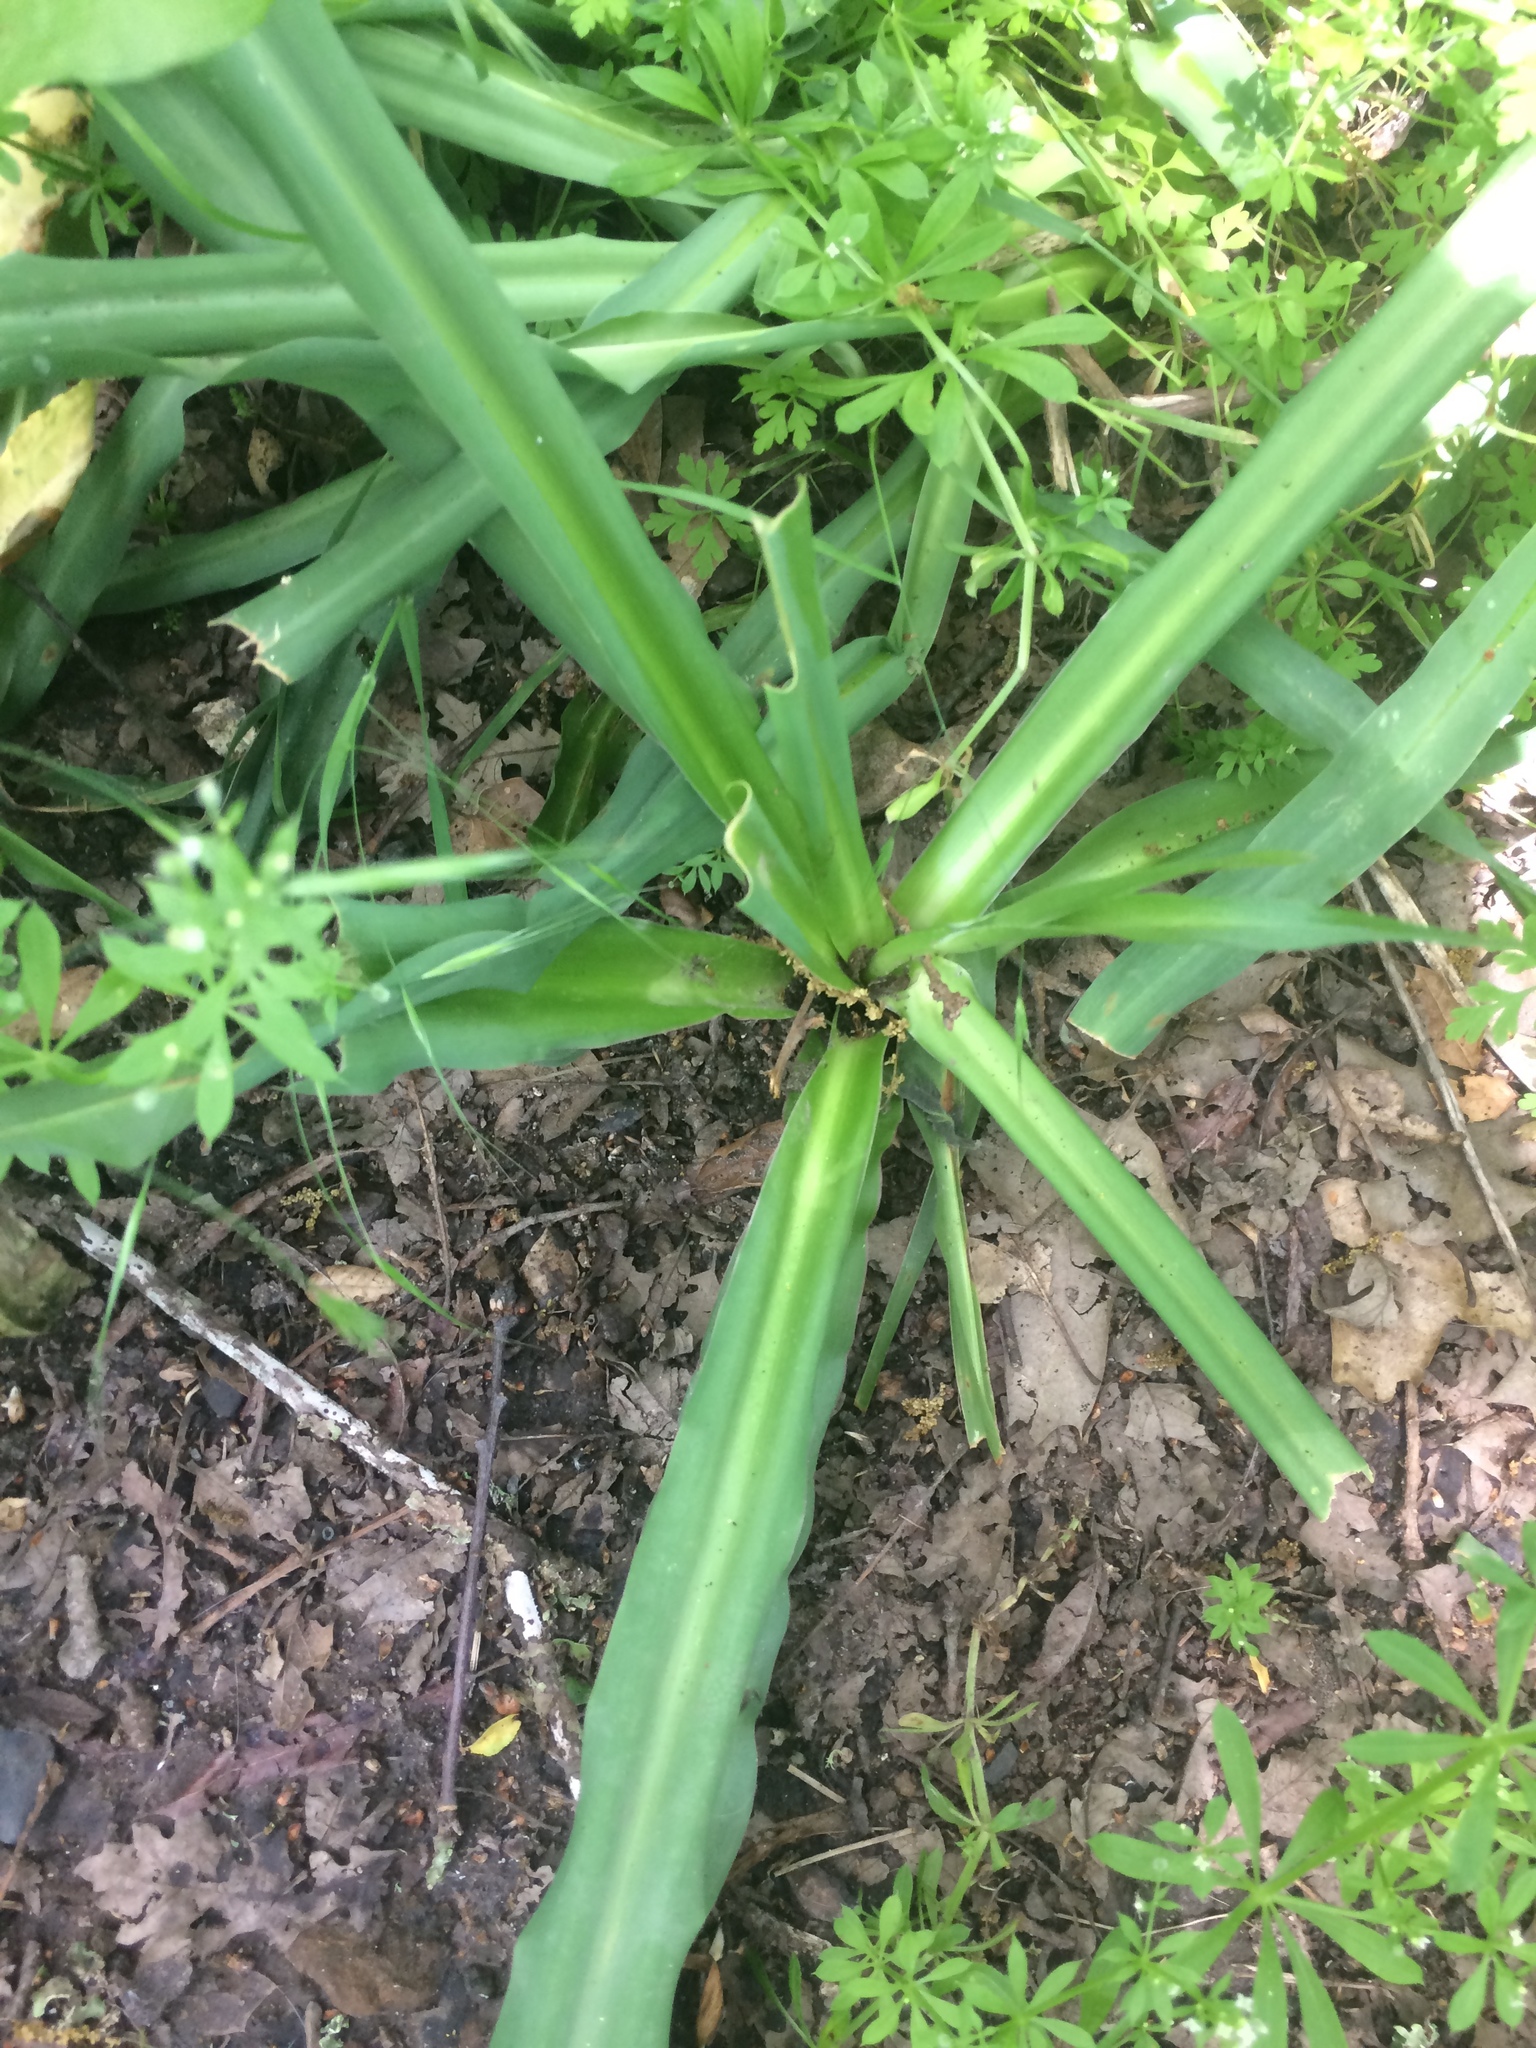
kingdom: Plantae
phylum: Tracheophyta
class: Liliopsida
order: Asparagales
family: Asparagaceae
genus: Chlorogalum
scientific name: Chlorogalum pomeridianum
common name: Amole
